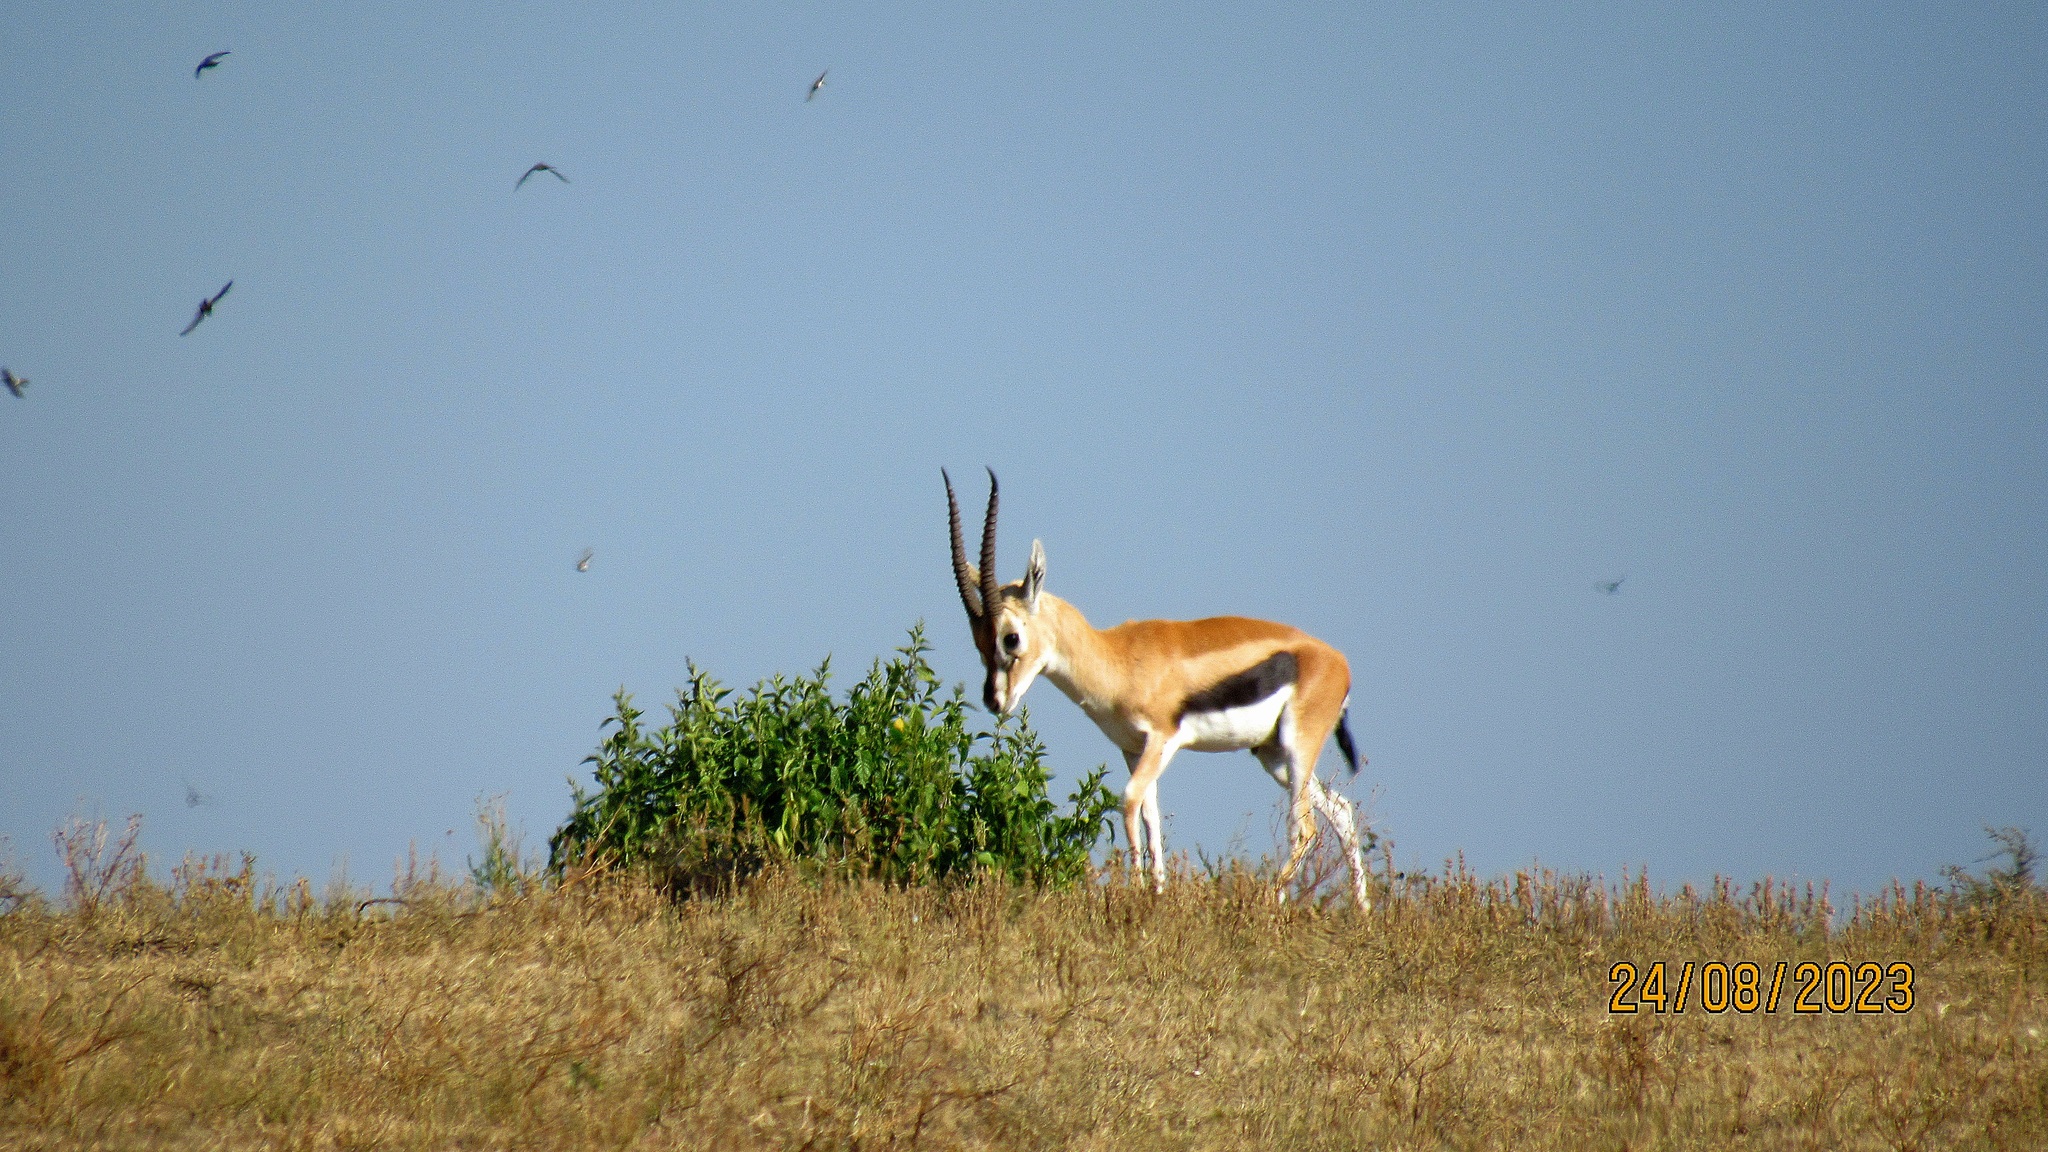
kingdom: Animalia
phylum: Chordata
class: Mammalia
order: Artiodactyla
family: Bovidae
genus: Eudorcas
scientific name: Eudorcas thomsonii
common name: Thomson's gazelle
